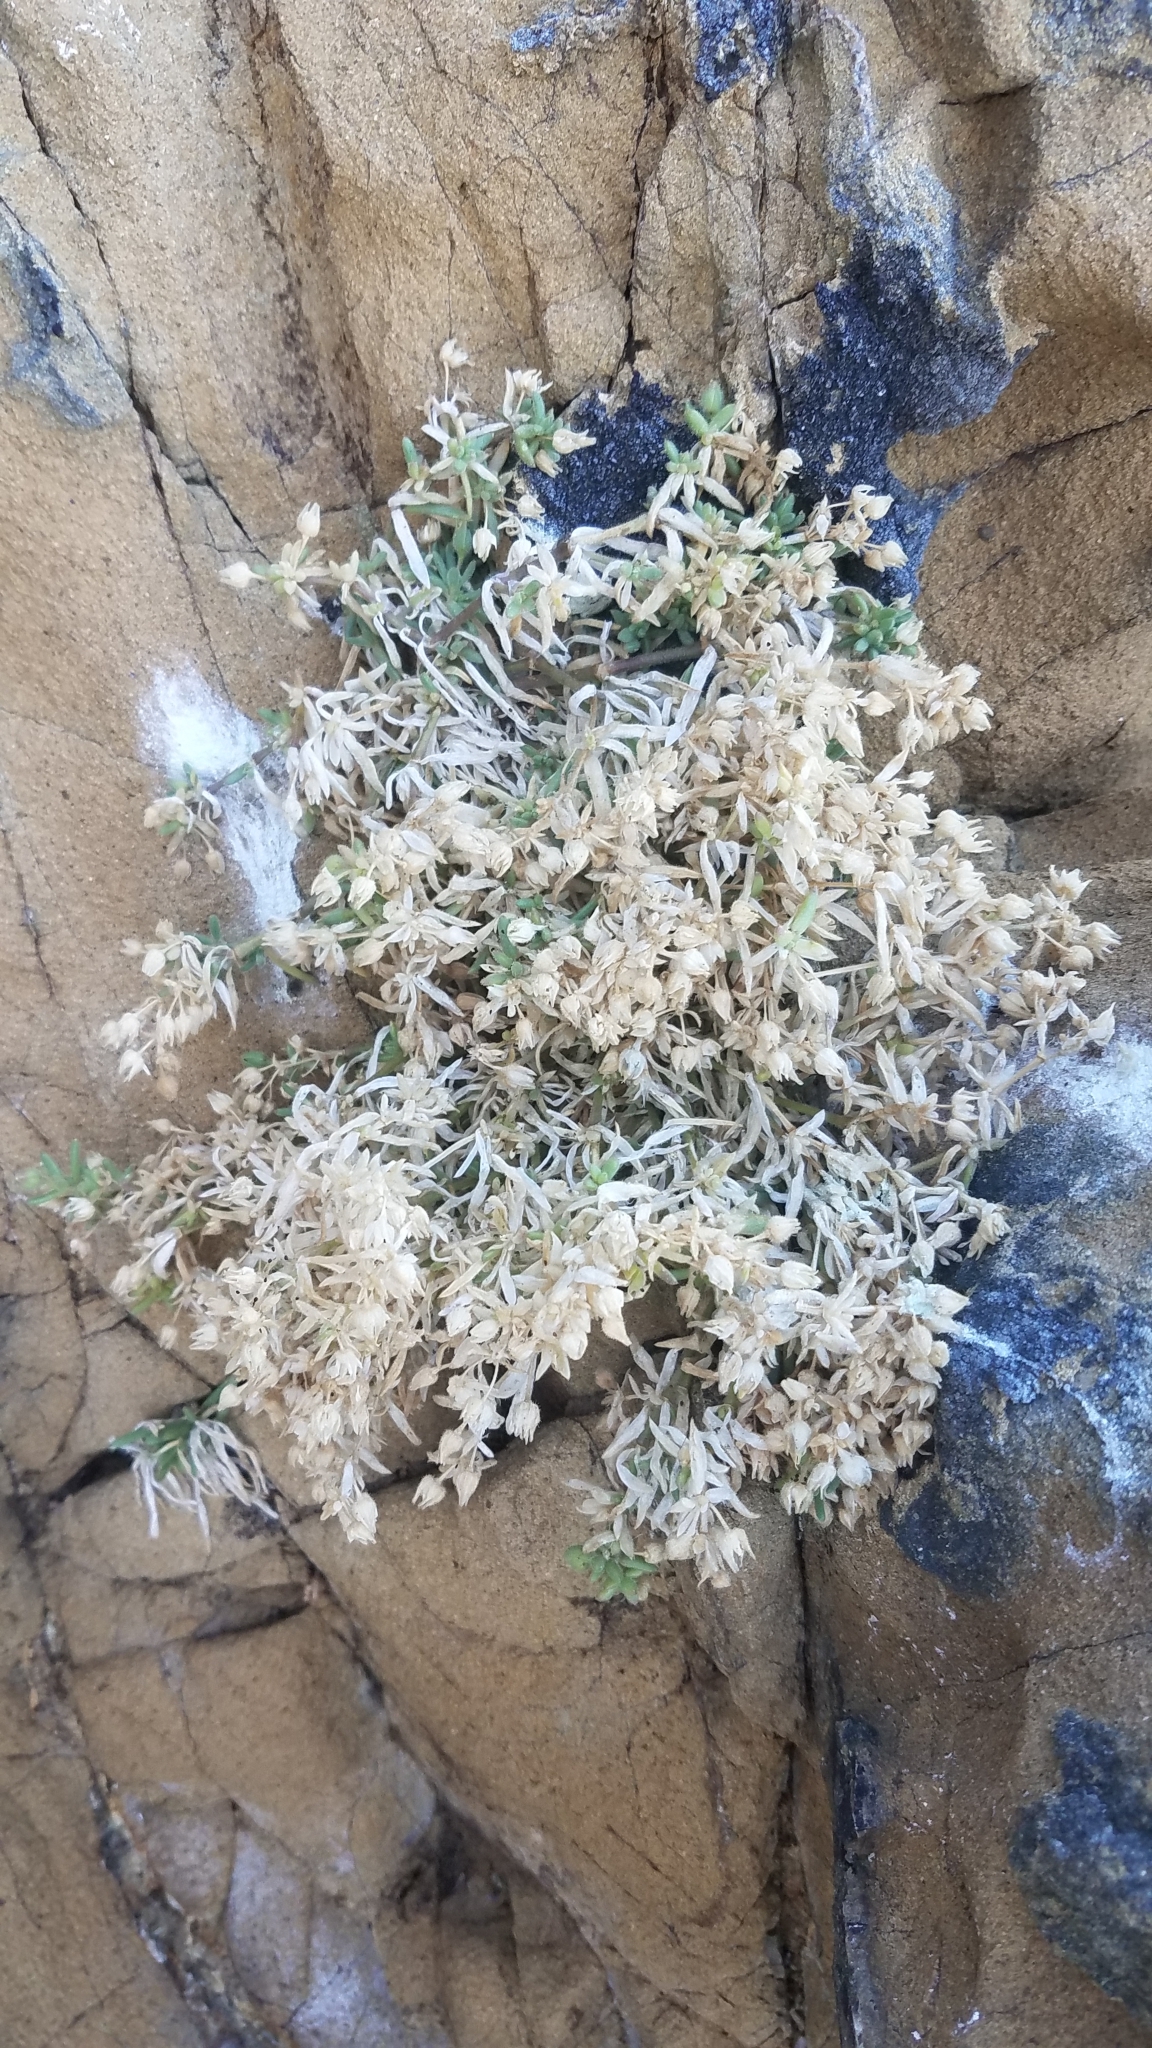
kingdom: Plantae
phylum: Tracheophyta
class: Magnoliopsida
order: Caryophyllales
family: Caryophyllaceae
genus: Spergularia
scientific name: Spergularia macrotheca
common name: Beach sand-spurrey
